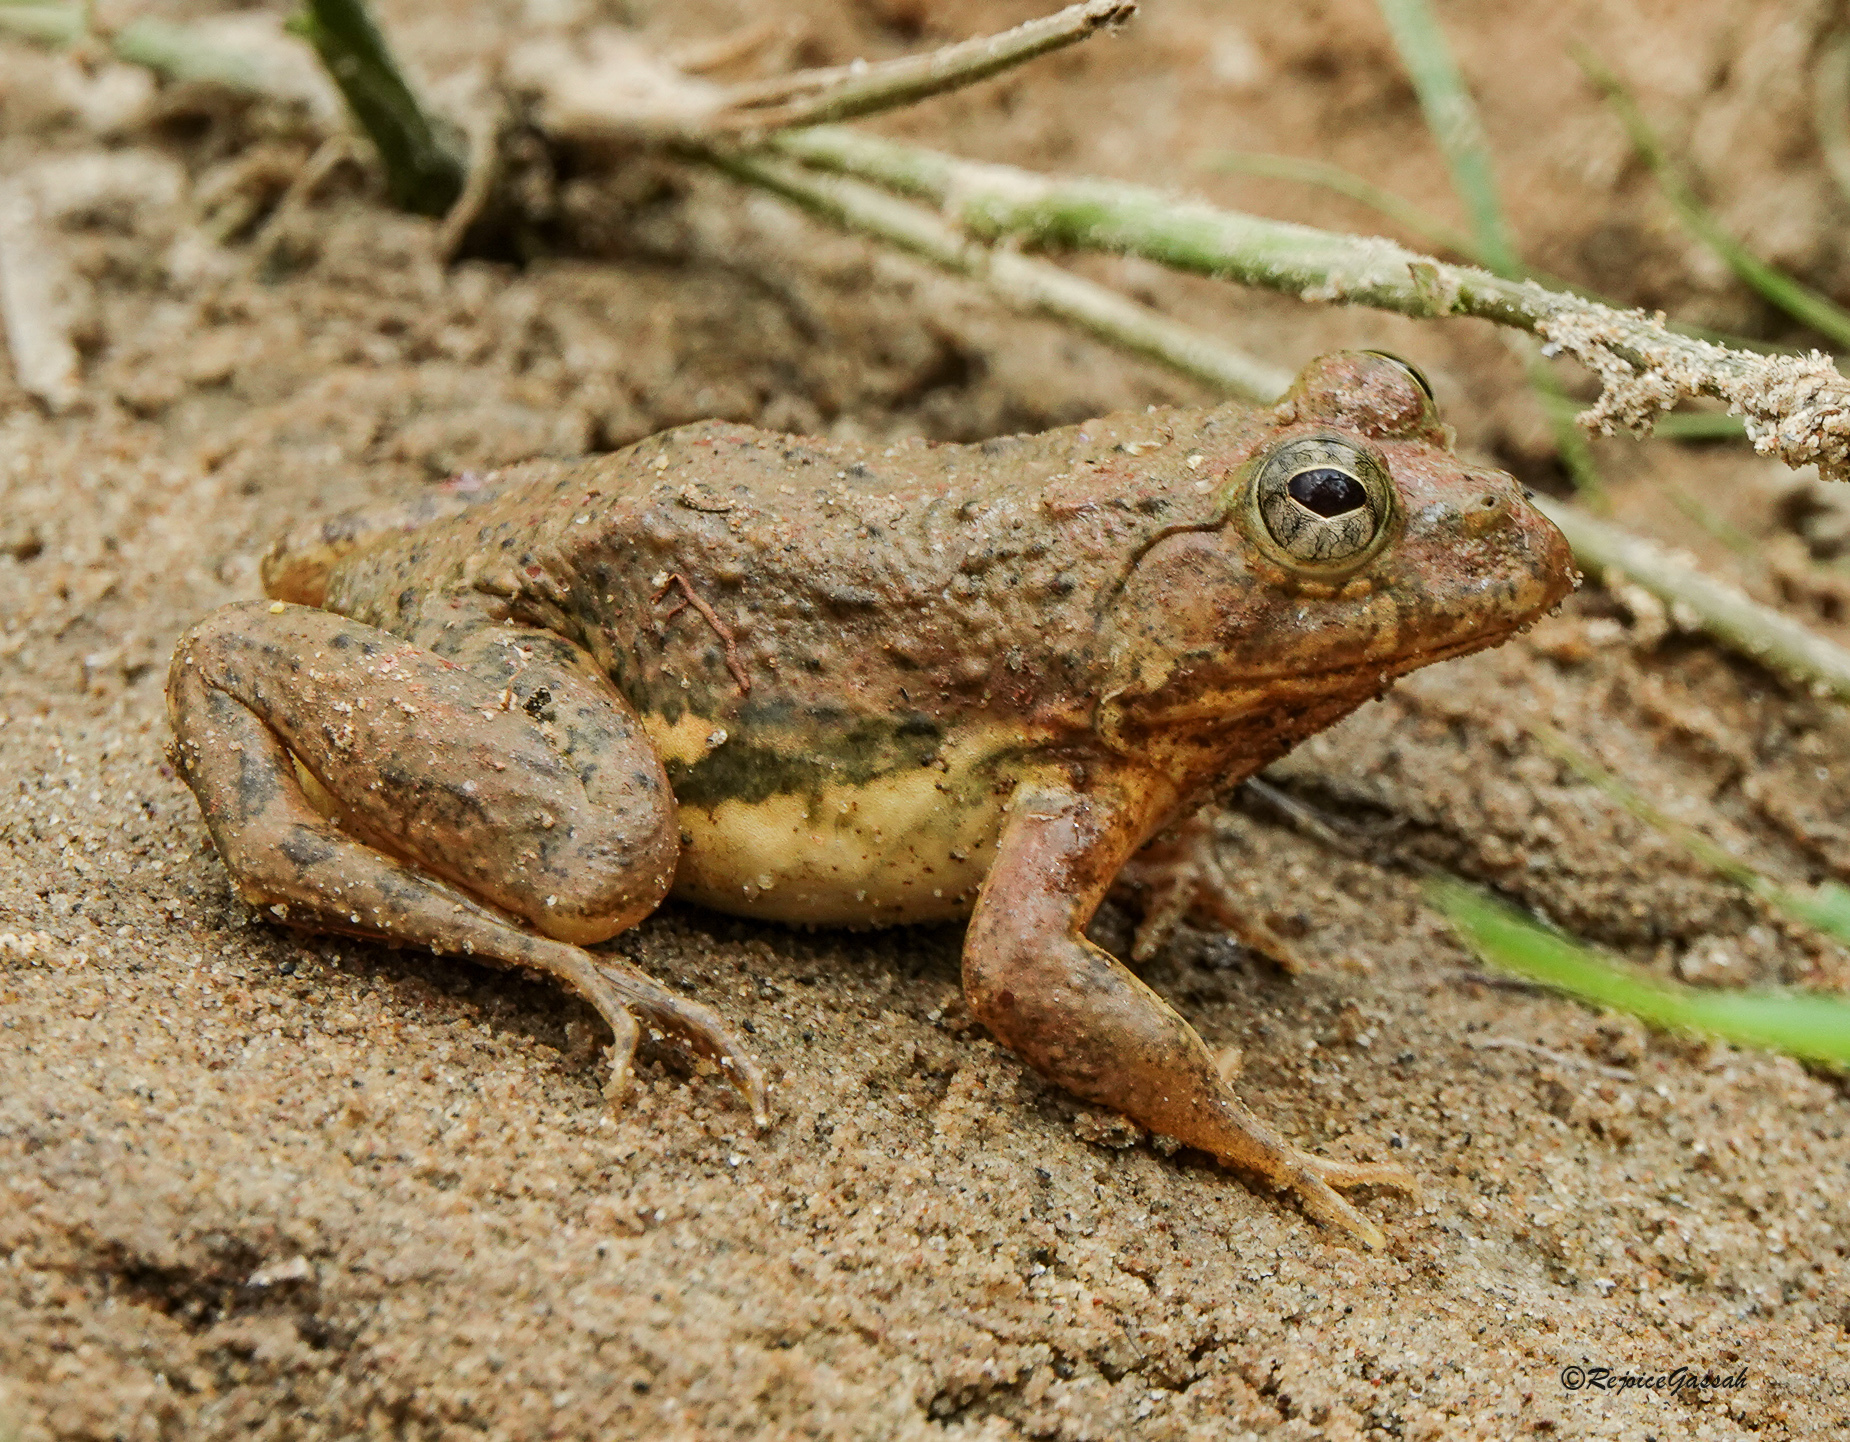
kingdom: Animalia
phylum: Chordata
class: Amphibia
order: Anura
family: Dicroglossidae
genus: Euphlyctis
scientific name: Euphlyctis cyanophlyctis
